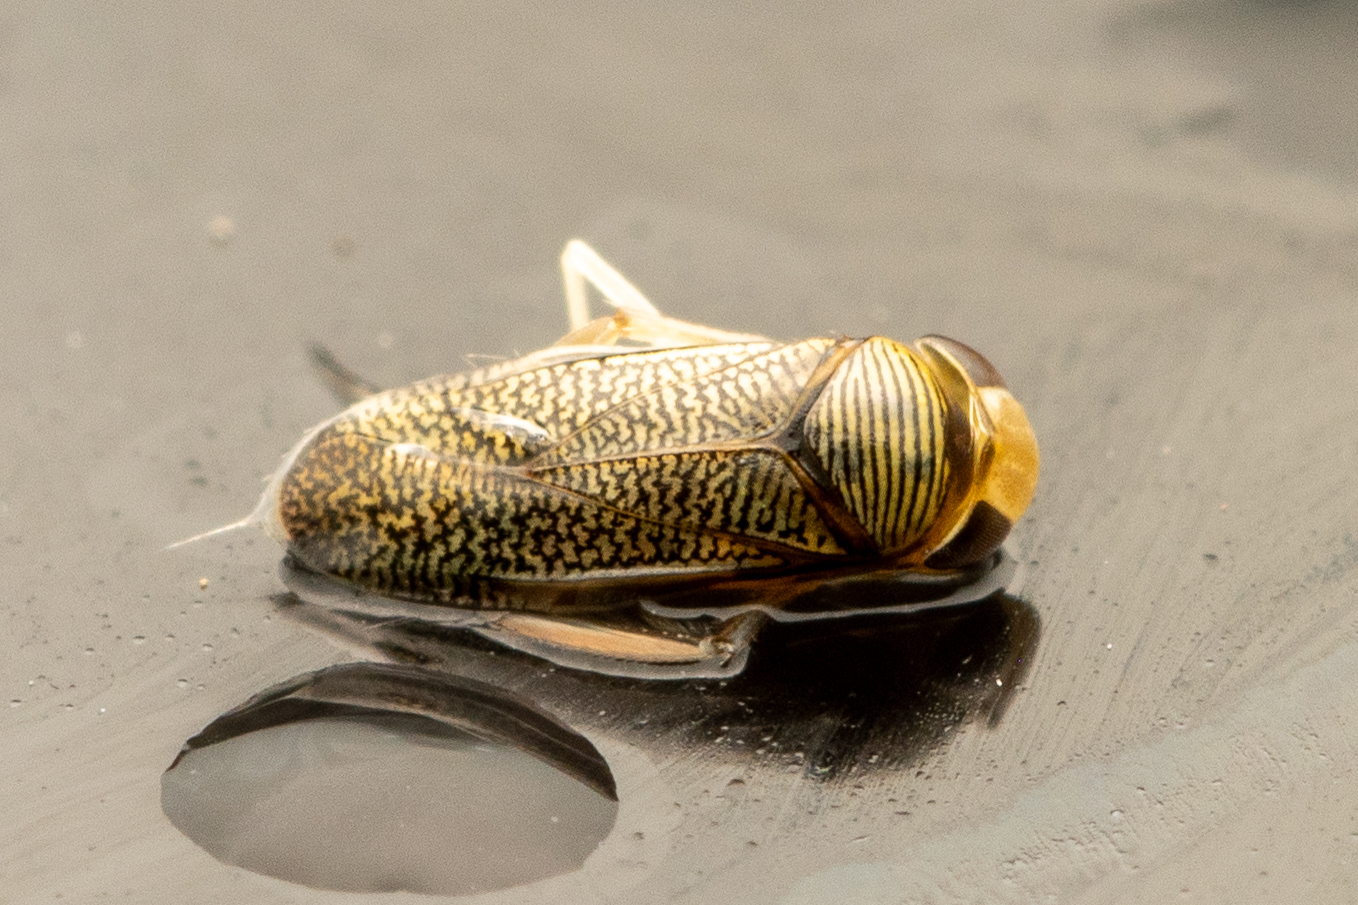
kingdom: Animalia
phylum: Arthropoda
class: Insecta
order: Hemiptera
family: Corixidae
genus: Trichocorixa
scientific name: Trichocorixa
